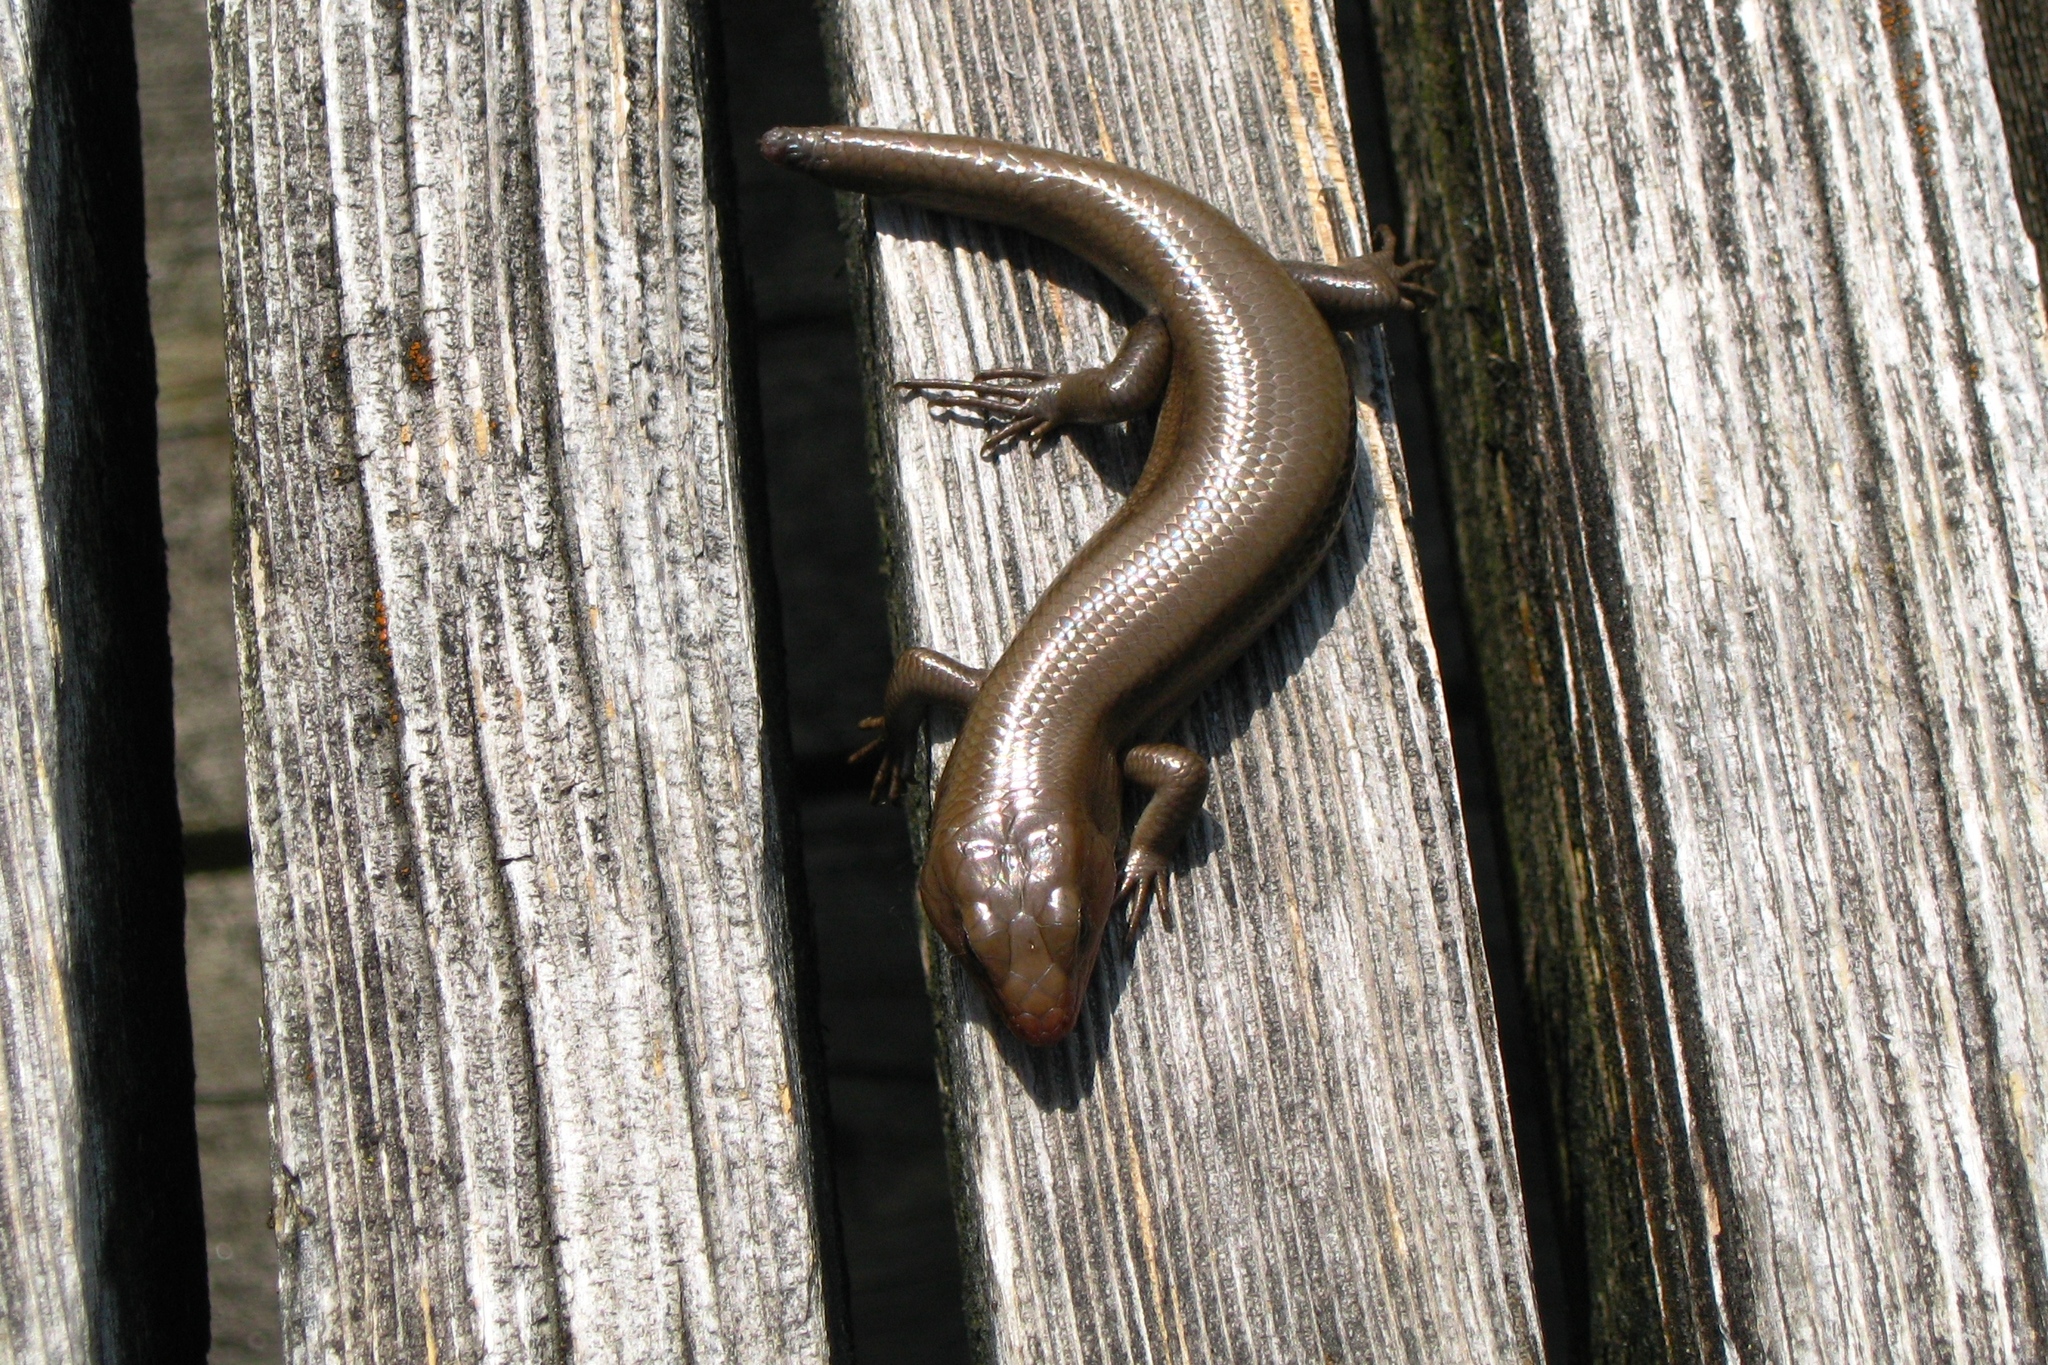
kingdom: Animalia
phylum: Chordata
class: Squamata
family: Scincidae
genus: Plestiodon
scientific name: Plestiodon fasciatus
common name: Five-lined skink
